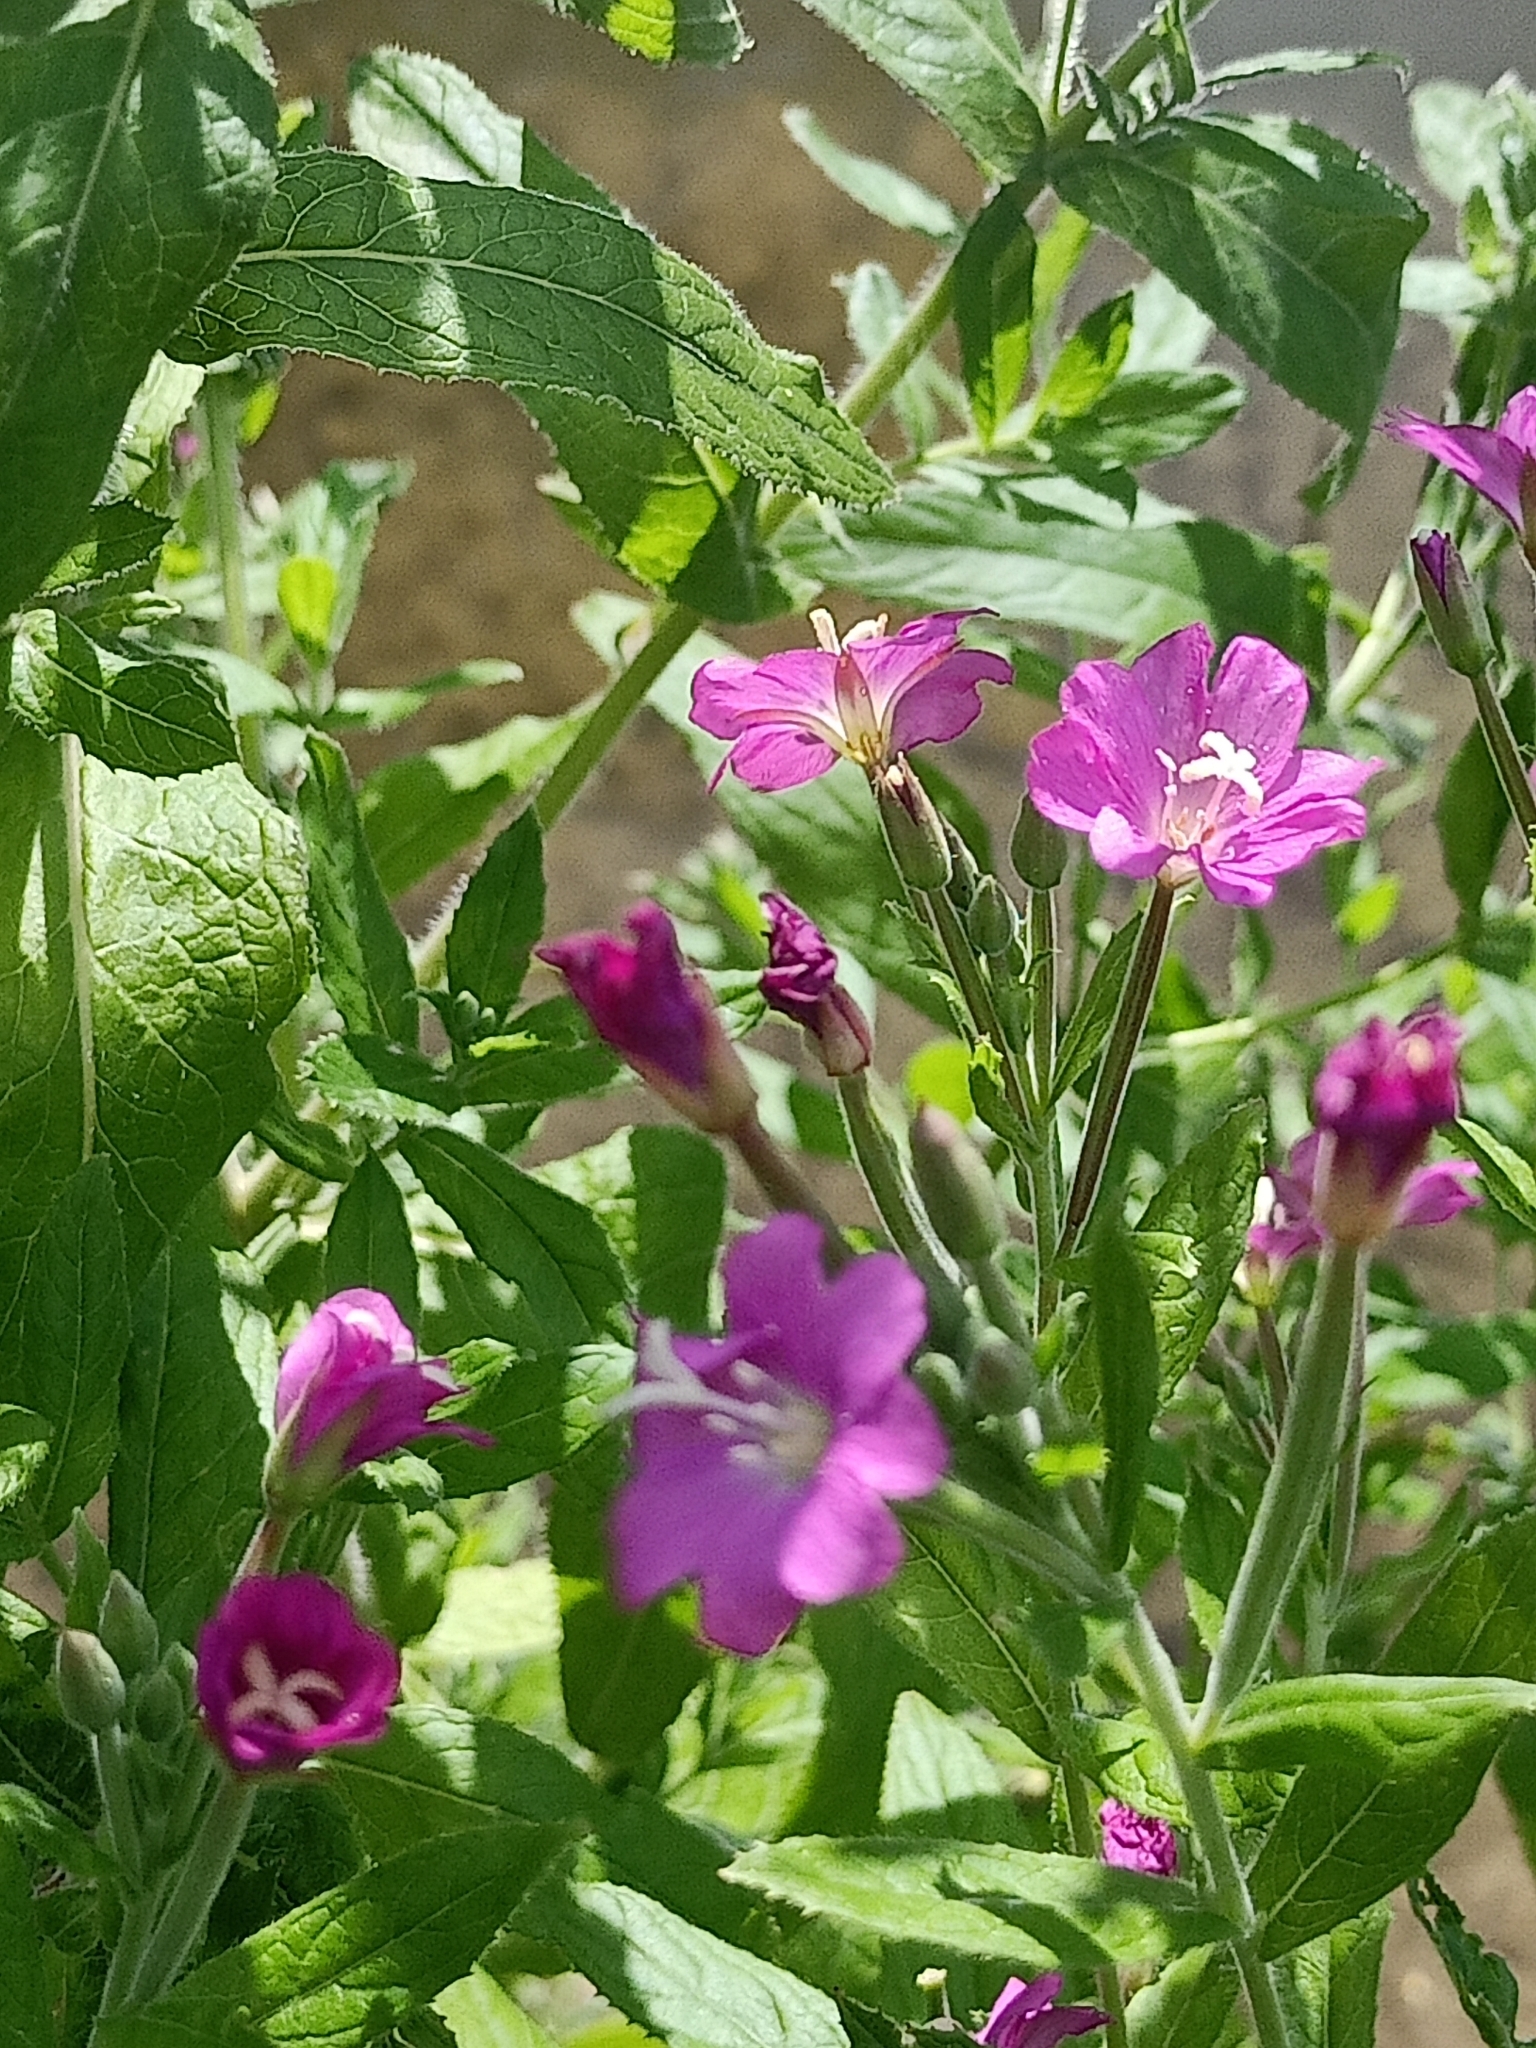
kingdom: Plantae
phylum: Tracheophyta
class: Magnoliopsida
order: Myrtales
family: Onagraceae
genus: Epilobium
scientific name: Epilobium hirsutum
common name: Great willowherb
